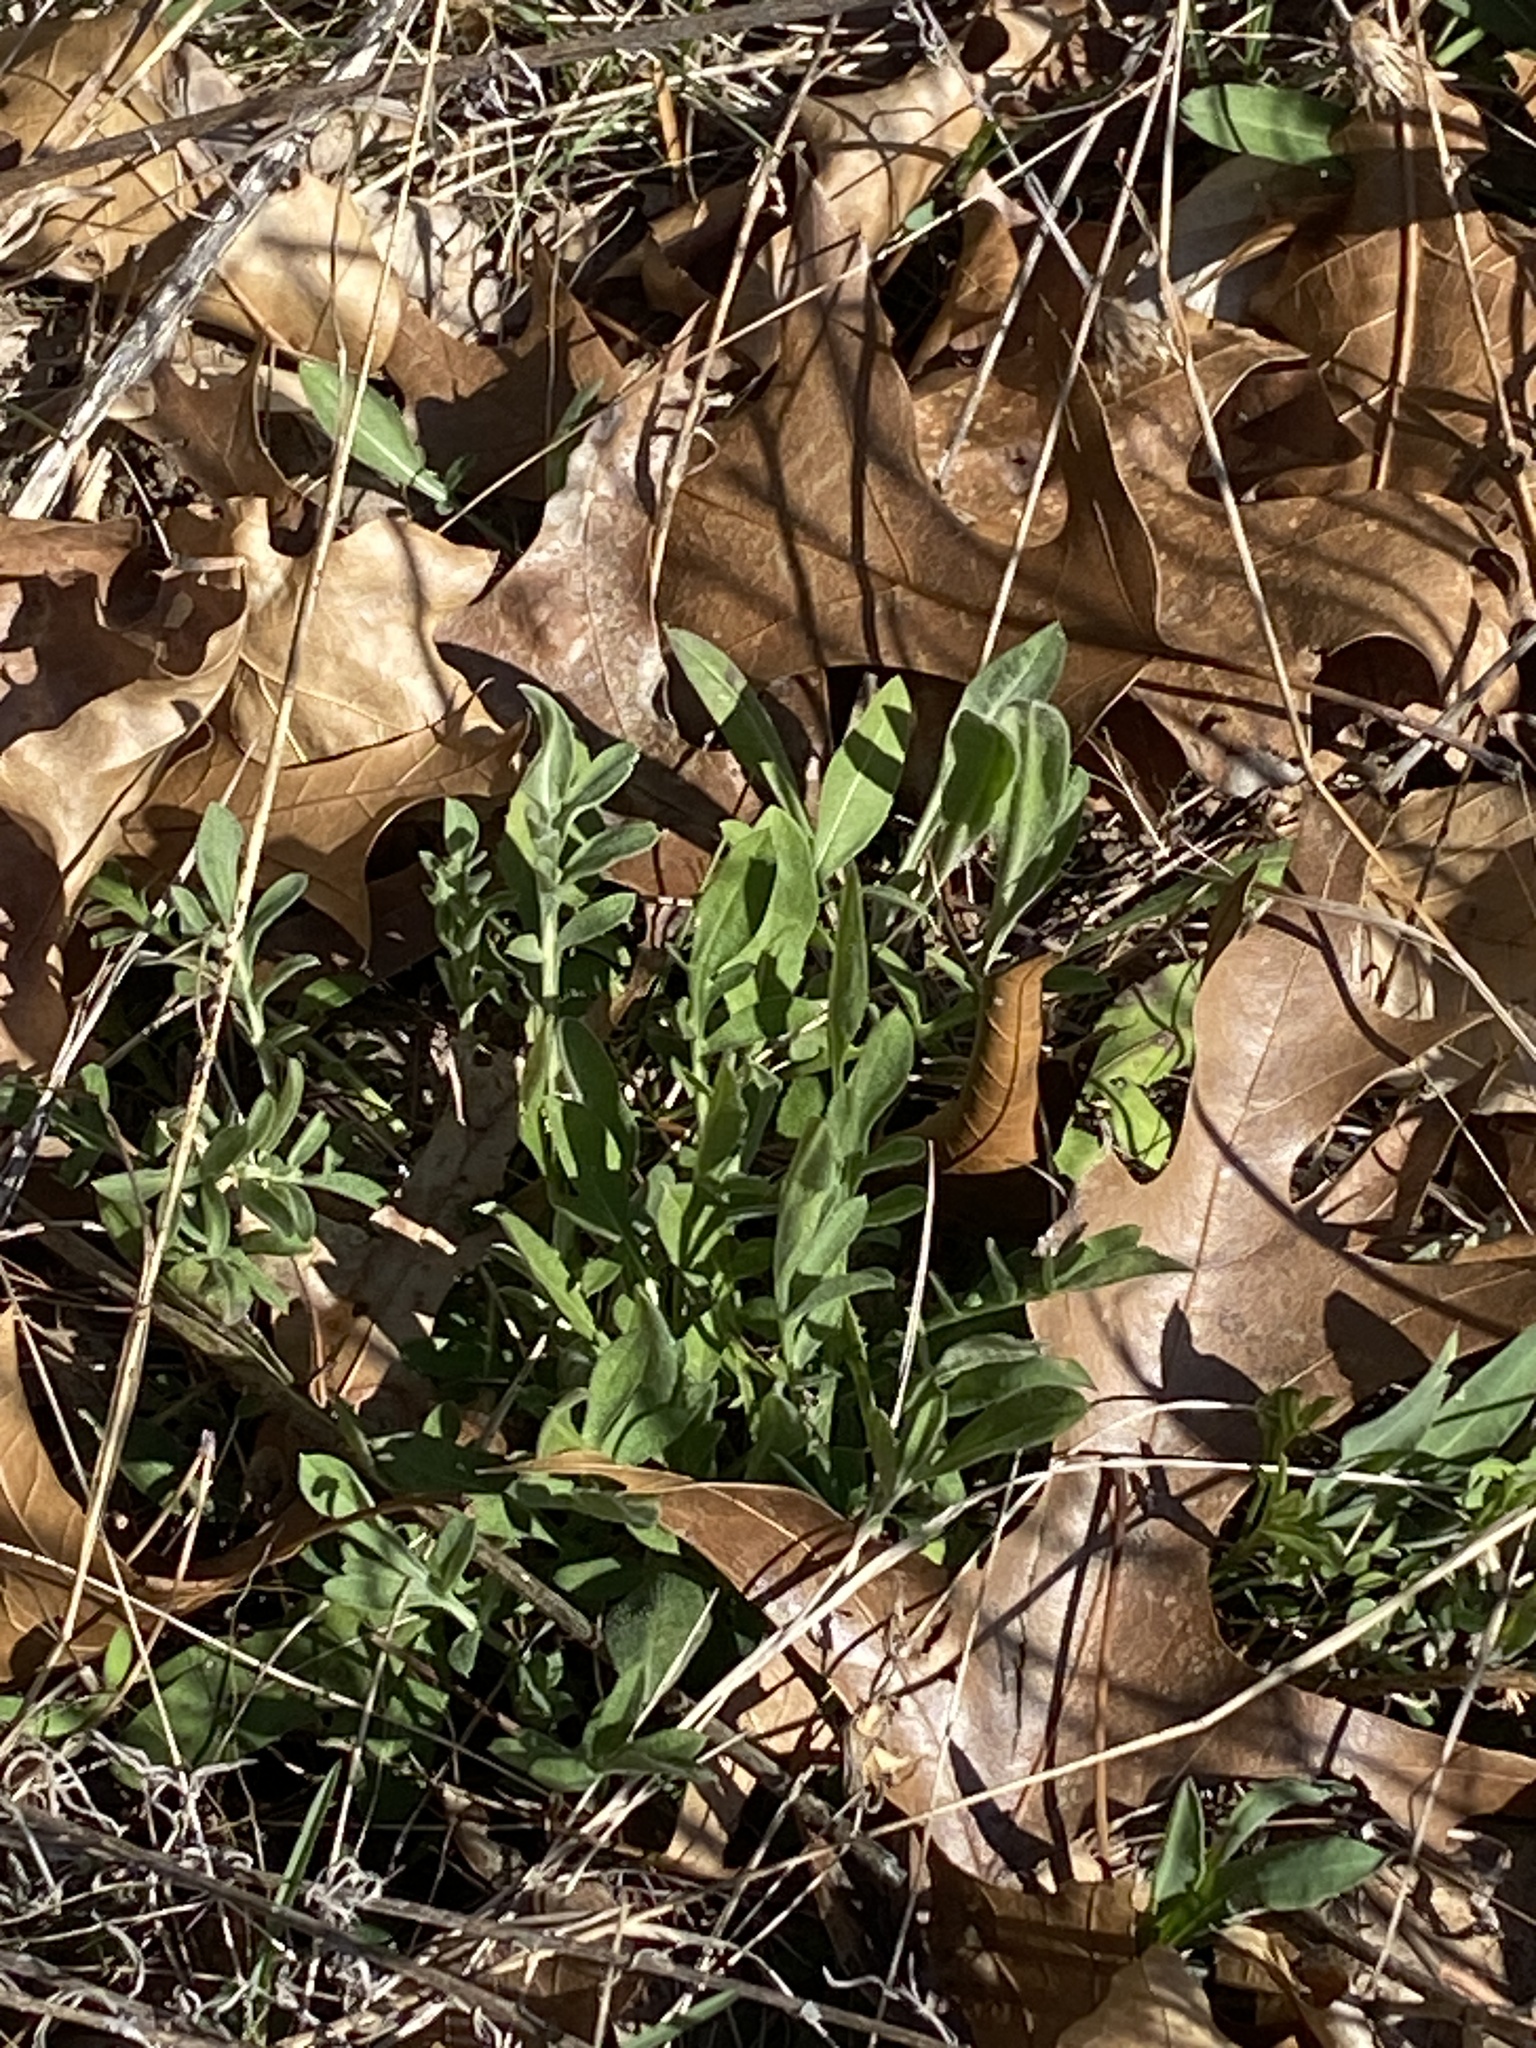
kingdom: Plantae
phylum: Tracheophyta
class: Magnoliopsida
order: Asterales
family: Asteraceae
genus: Centaurea
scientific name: Centaurea stoebe
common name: Spotted knapweed
